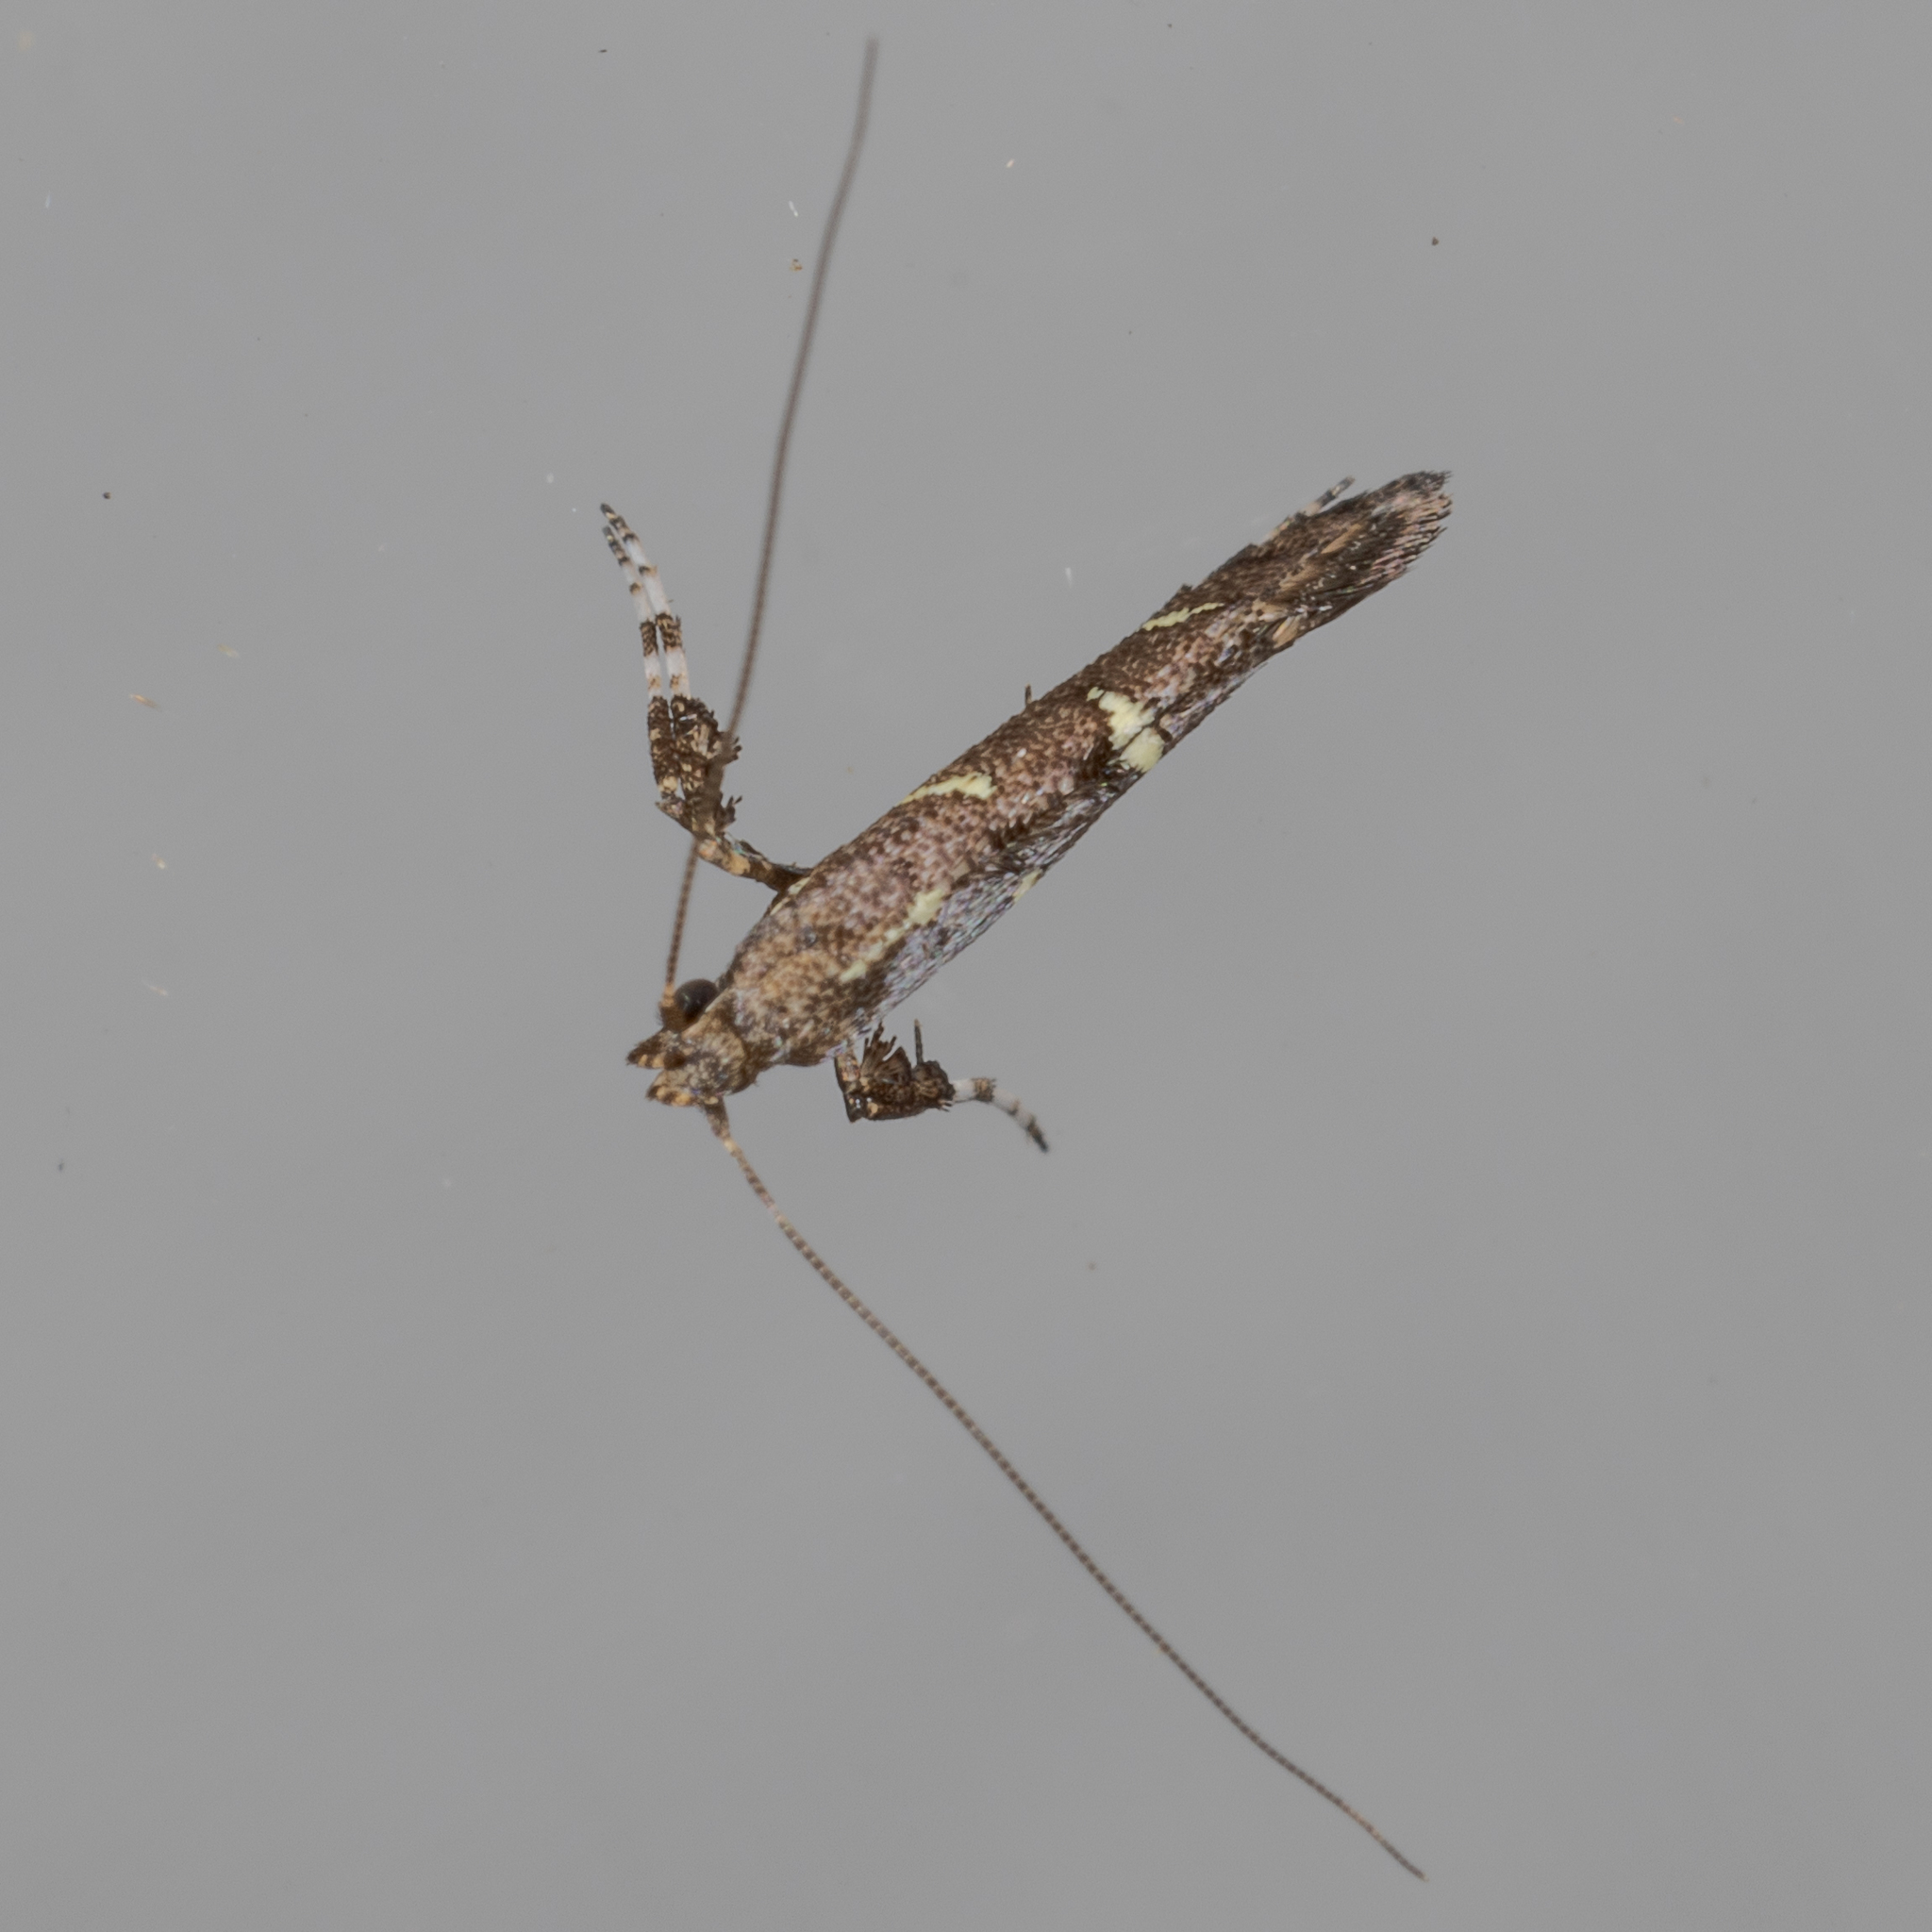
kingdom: Animalia
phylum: Arthropoda
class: Insecta
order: Lepidoptera
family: Gracillariidae
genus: Caloptilia
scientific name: Caloptilia triadicae
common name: Tallow leaf roller
